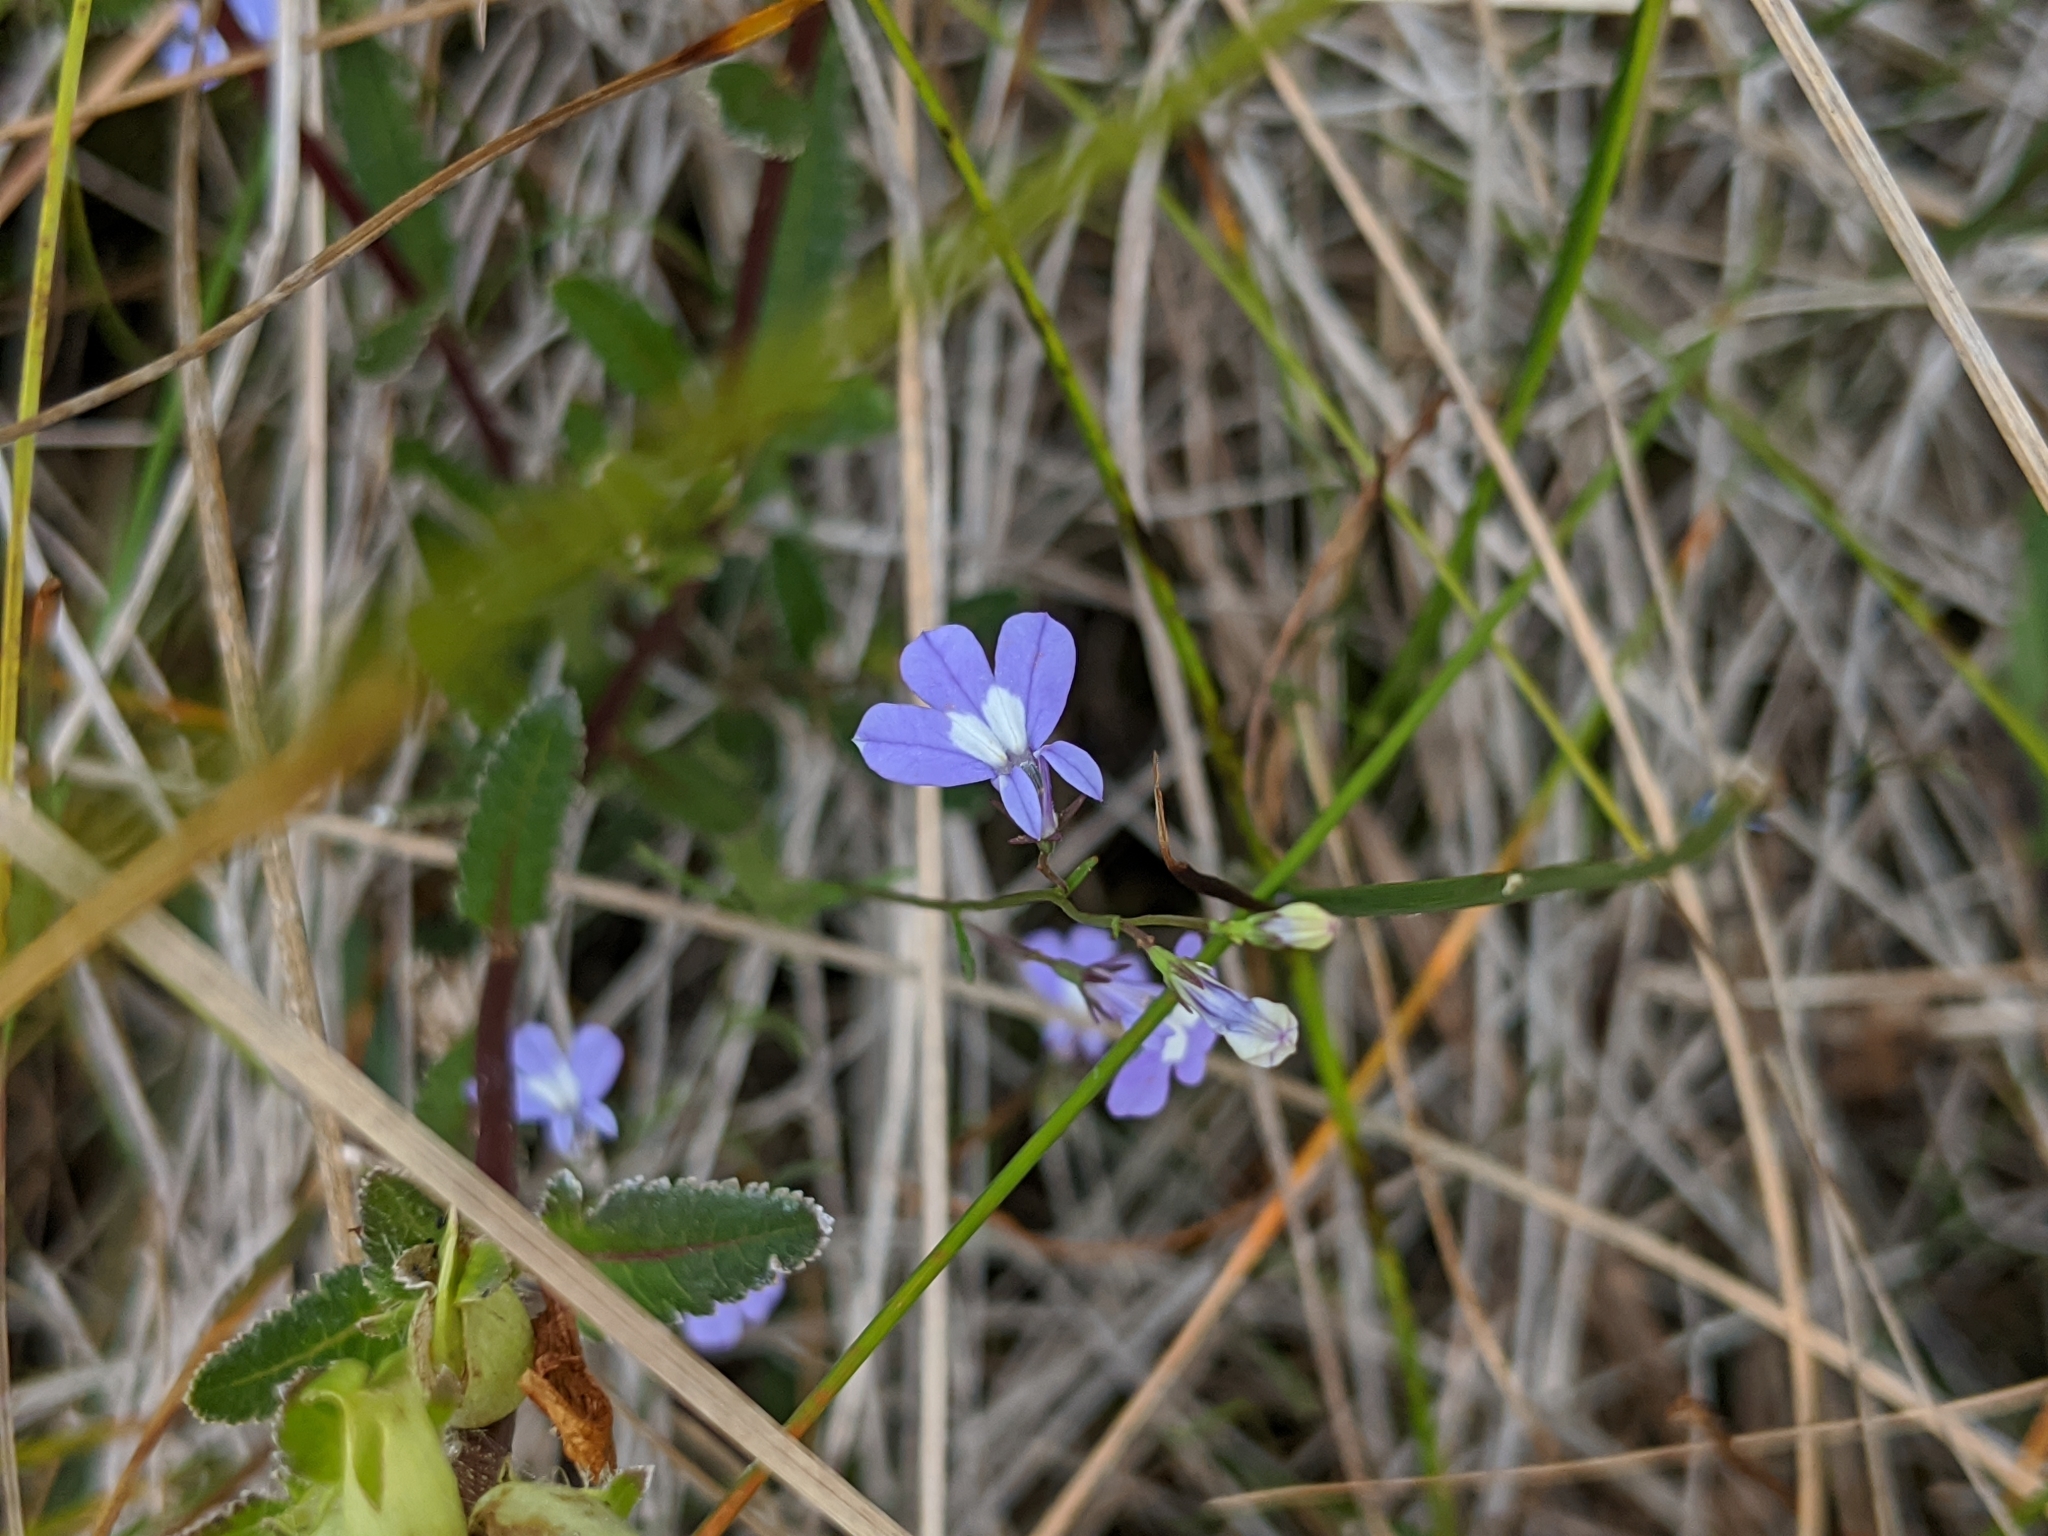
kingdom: Plantae
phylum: Tracheophyta
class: Magnoliopsida
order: Asterales
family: Campanulaceae
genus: Lobelia
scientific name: Lobelia kalmii
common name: Kalm's lobelia
